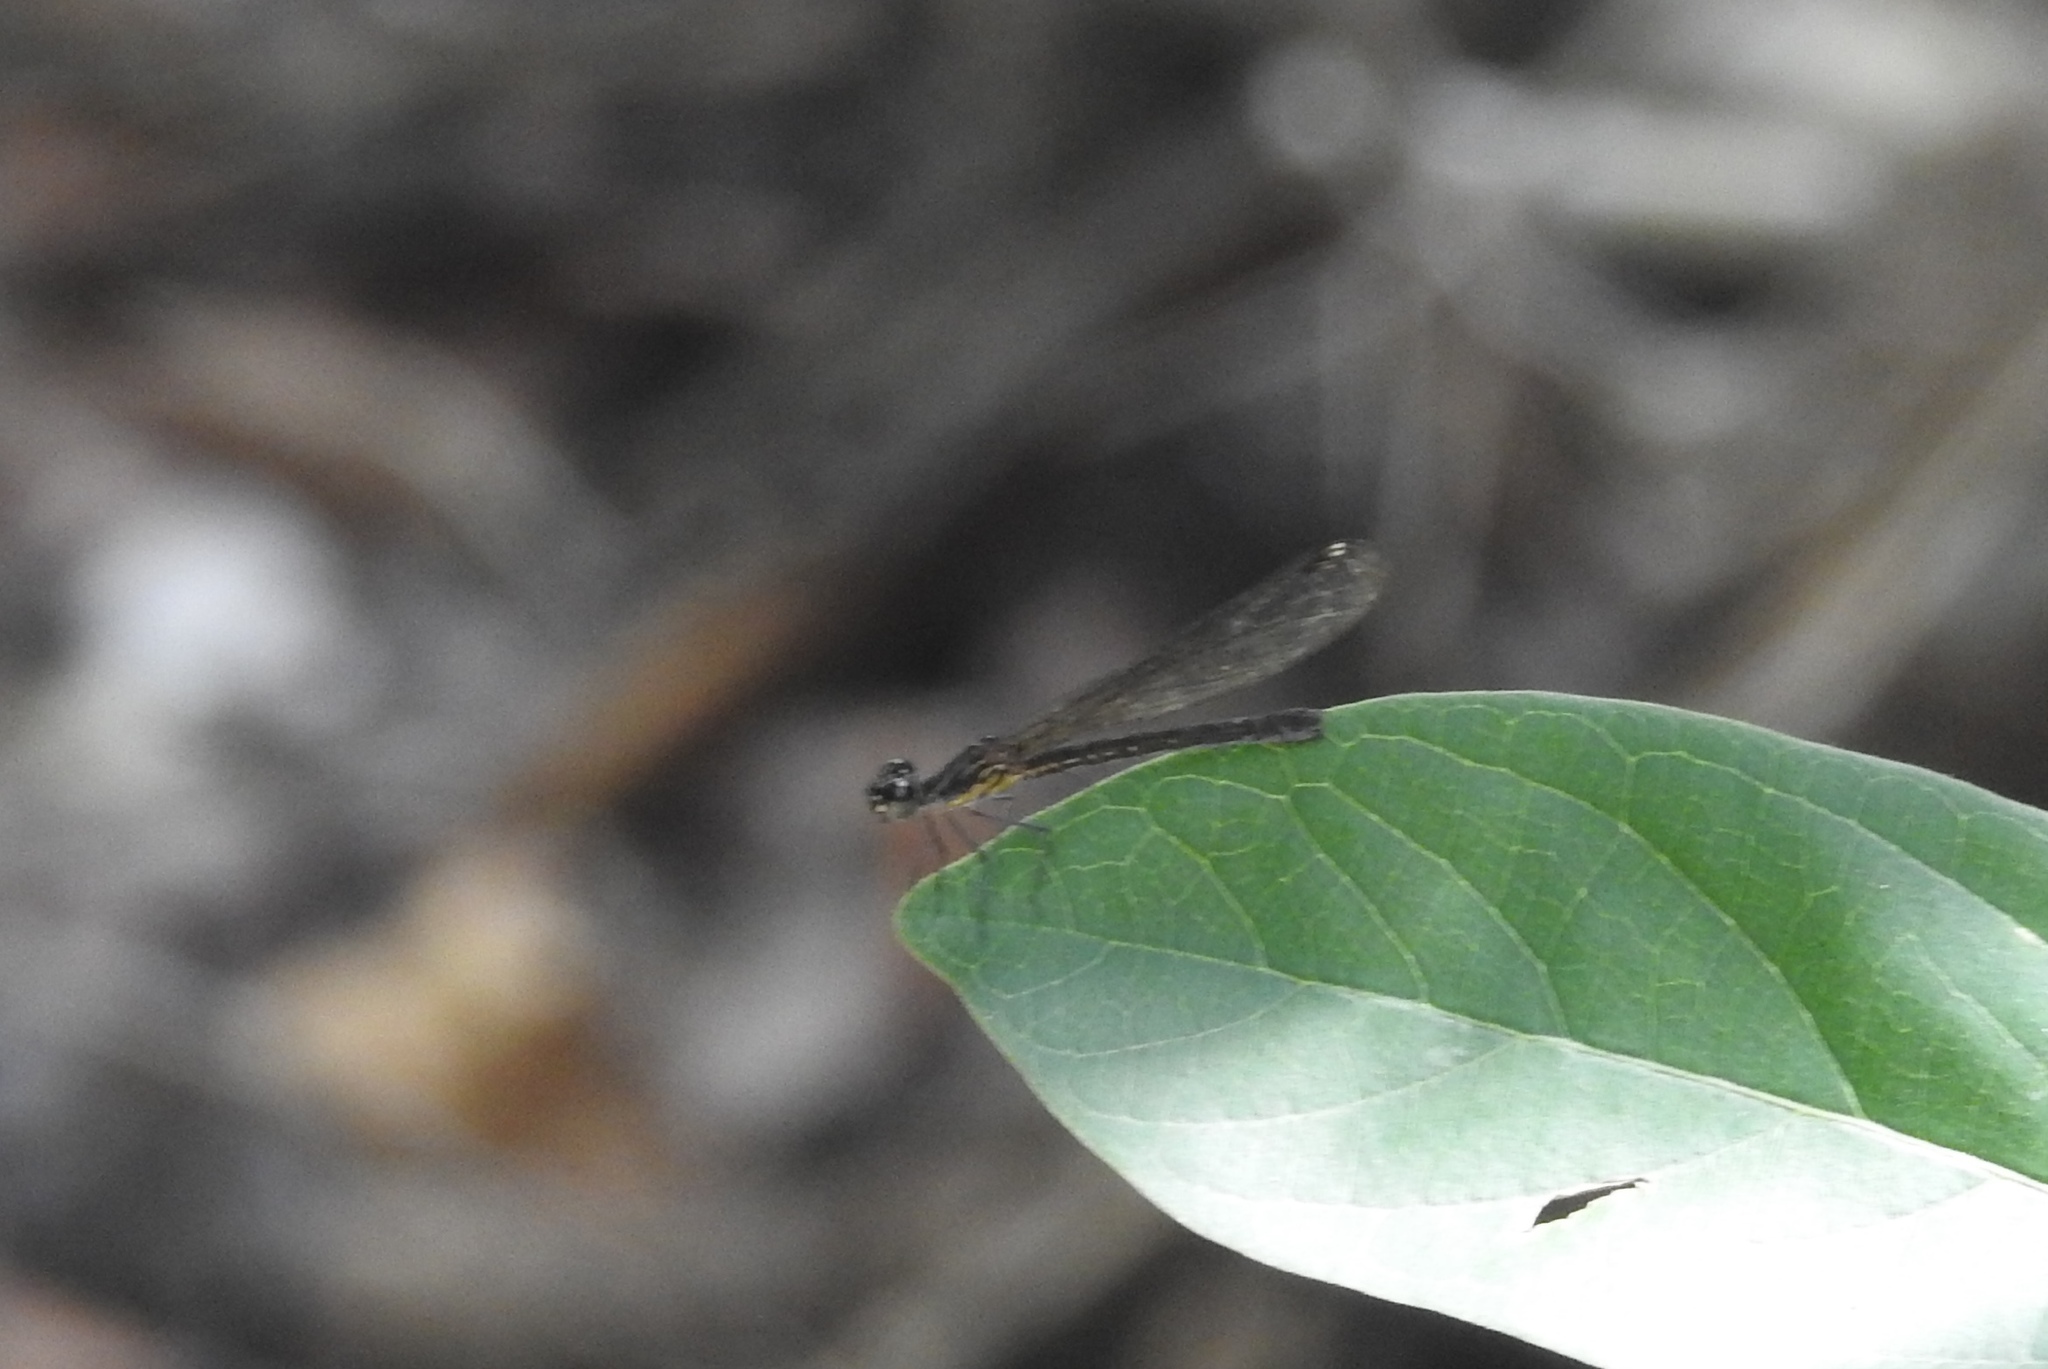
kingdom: Animalia
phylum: Arthropoda
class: Insecta
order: Odonata
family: Chlorocyphidae
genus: Heliocypha
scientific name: Heliocypha bisignata
